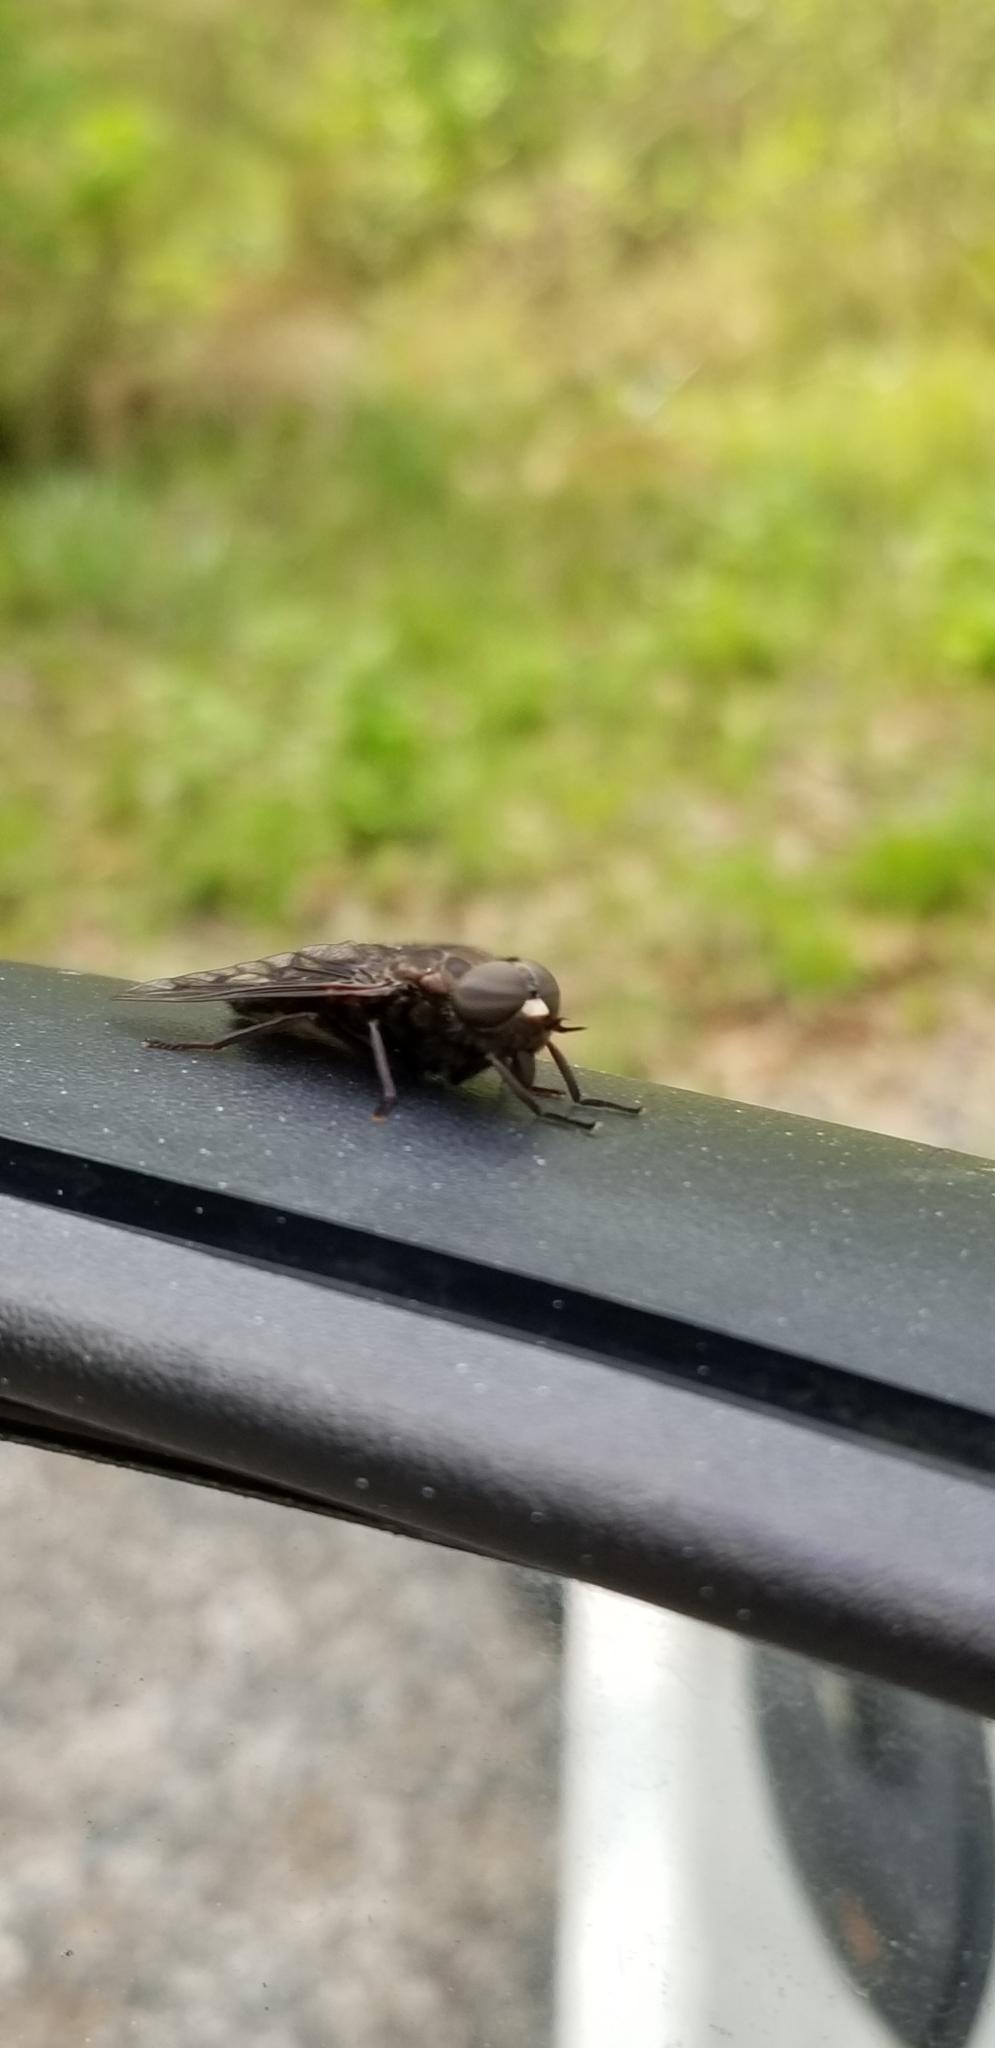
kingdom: Animalia
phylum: Arthropoda
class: Insecta
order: Diptera
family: Tabanidae
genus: Tabanus
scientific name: Tabanus atratus
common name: Black horse fly
